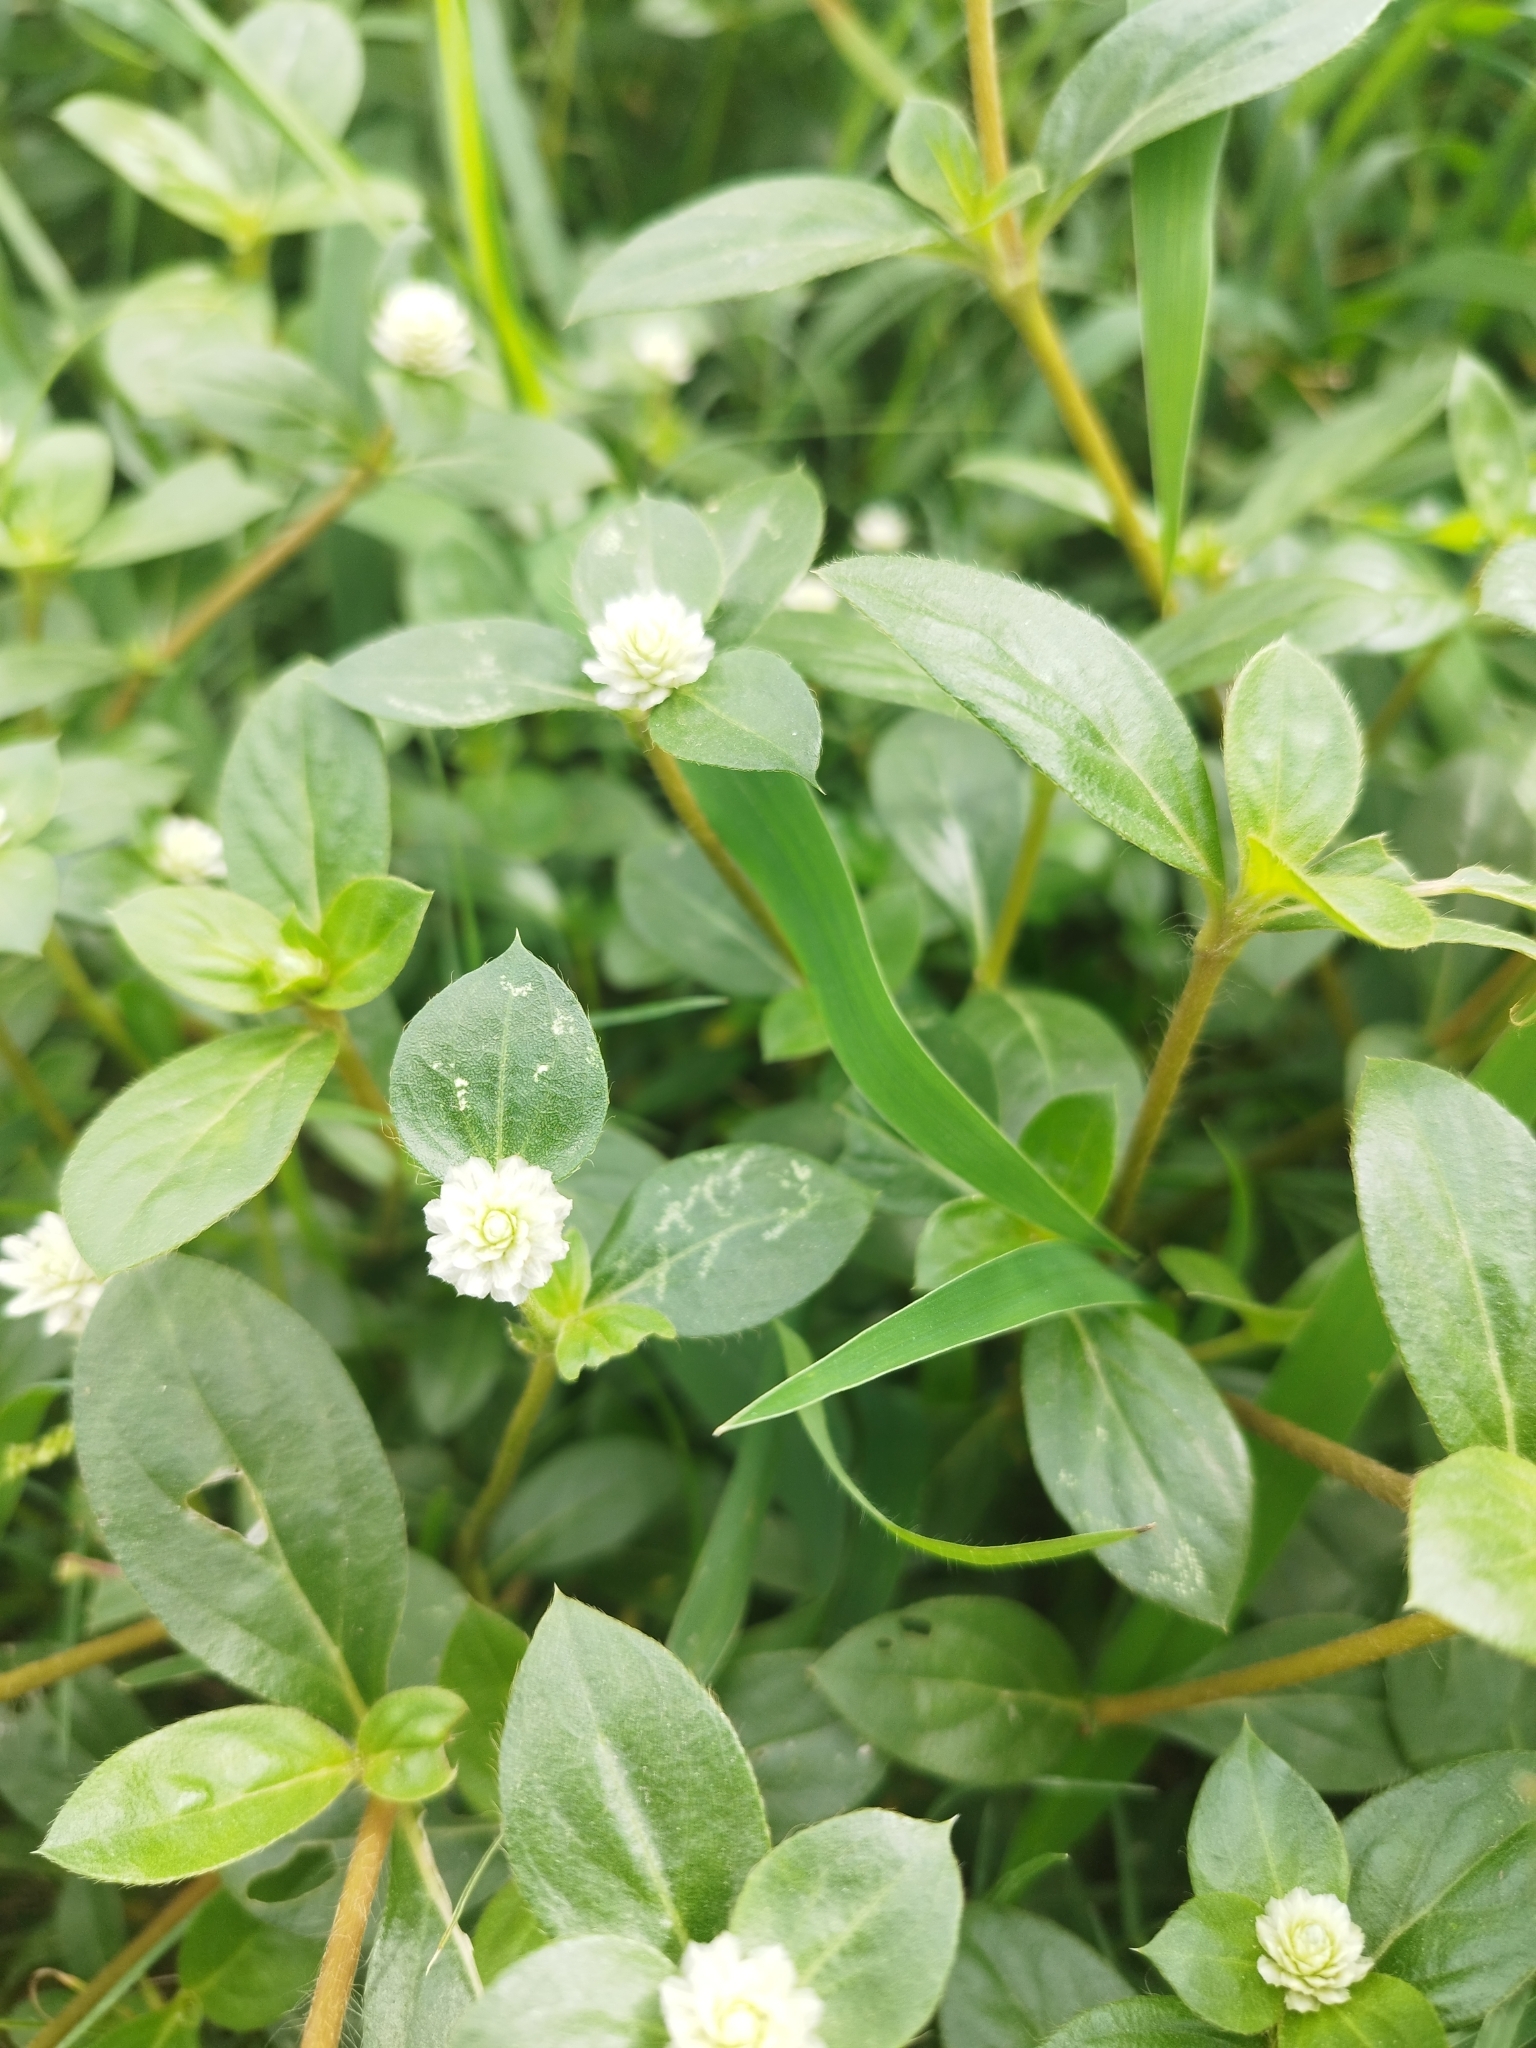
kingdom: Plantae
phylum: Tracheophyta
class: Magnoliopsida
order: Caryophyllales
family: Amaranthaceae
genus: Gomphrena
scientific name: Gomphrena serrata
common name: Arrasa con todo
